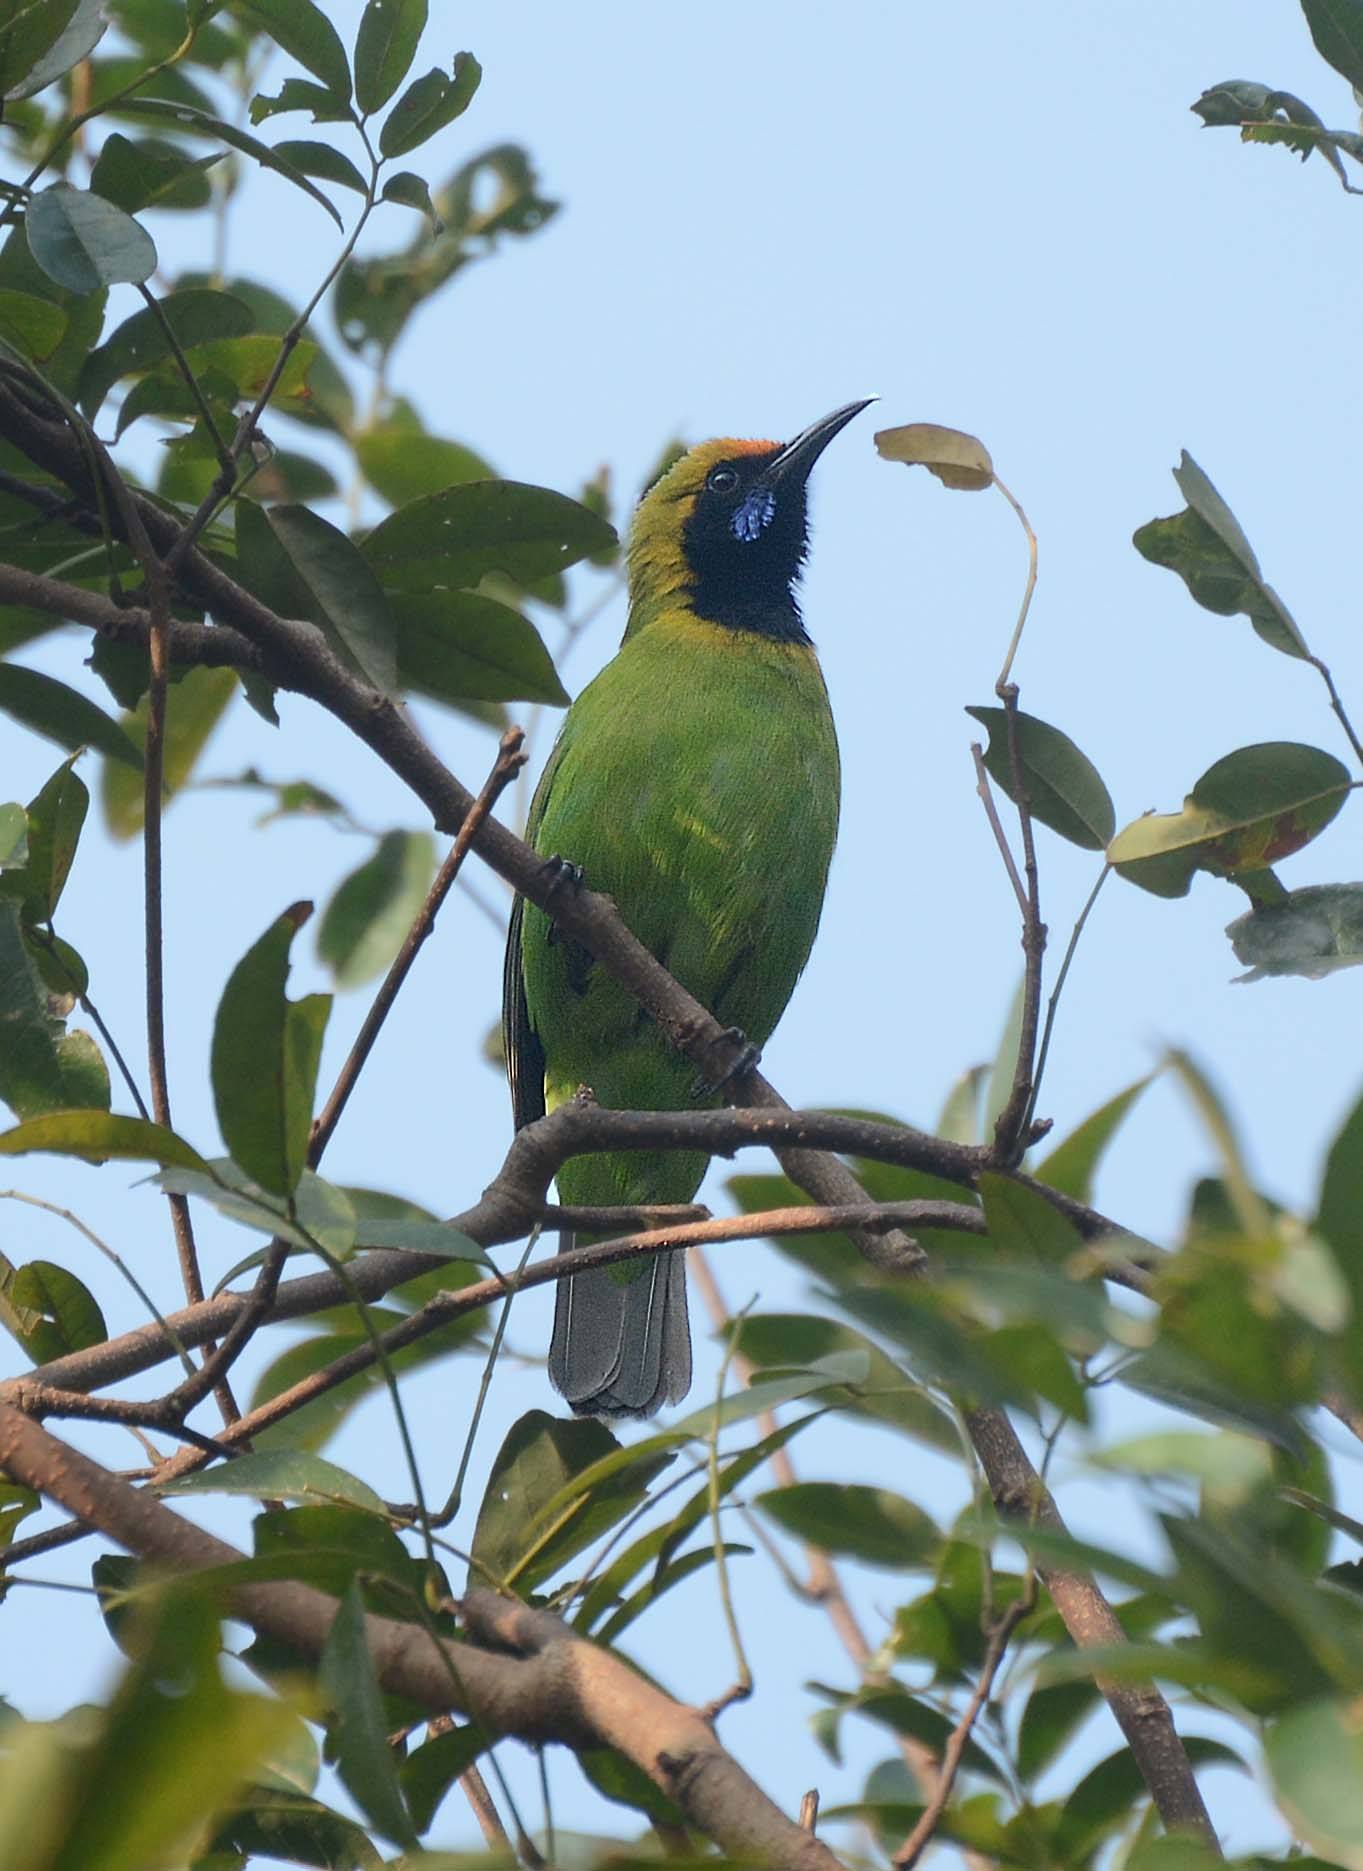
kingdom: Animalia
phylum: Chordata
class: Aves
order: Passeriformes
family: Chloropseidae
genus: Chloropsis
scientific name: Chloropsis aurifrons
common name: Golden-fronted leafbird
